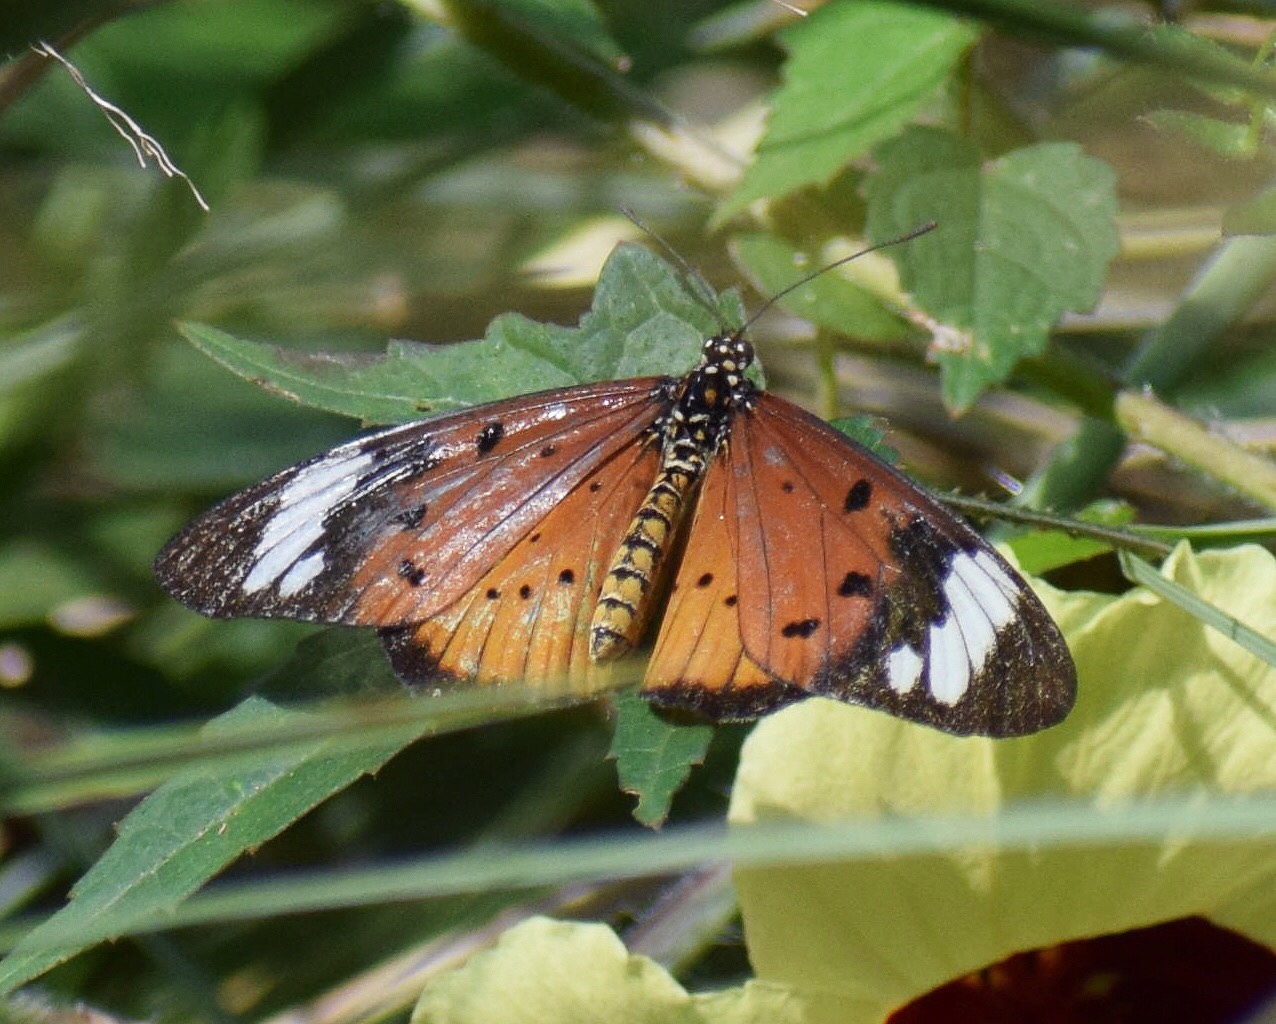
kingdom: Animalia
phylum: Arthropoda
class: Insecta
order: Lepidoptera
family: Nymphalidae
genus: Acraea
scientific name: Acraea Telchinia encedon
